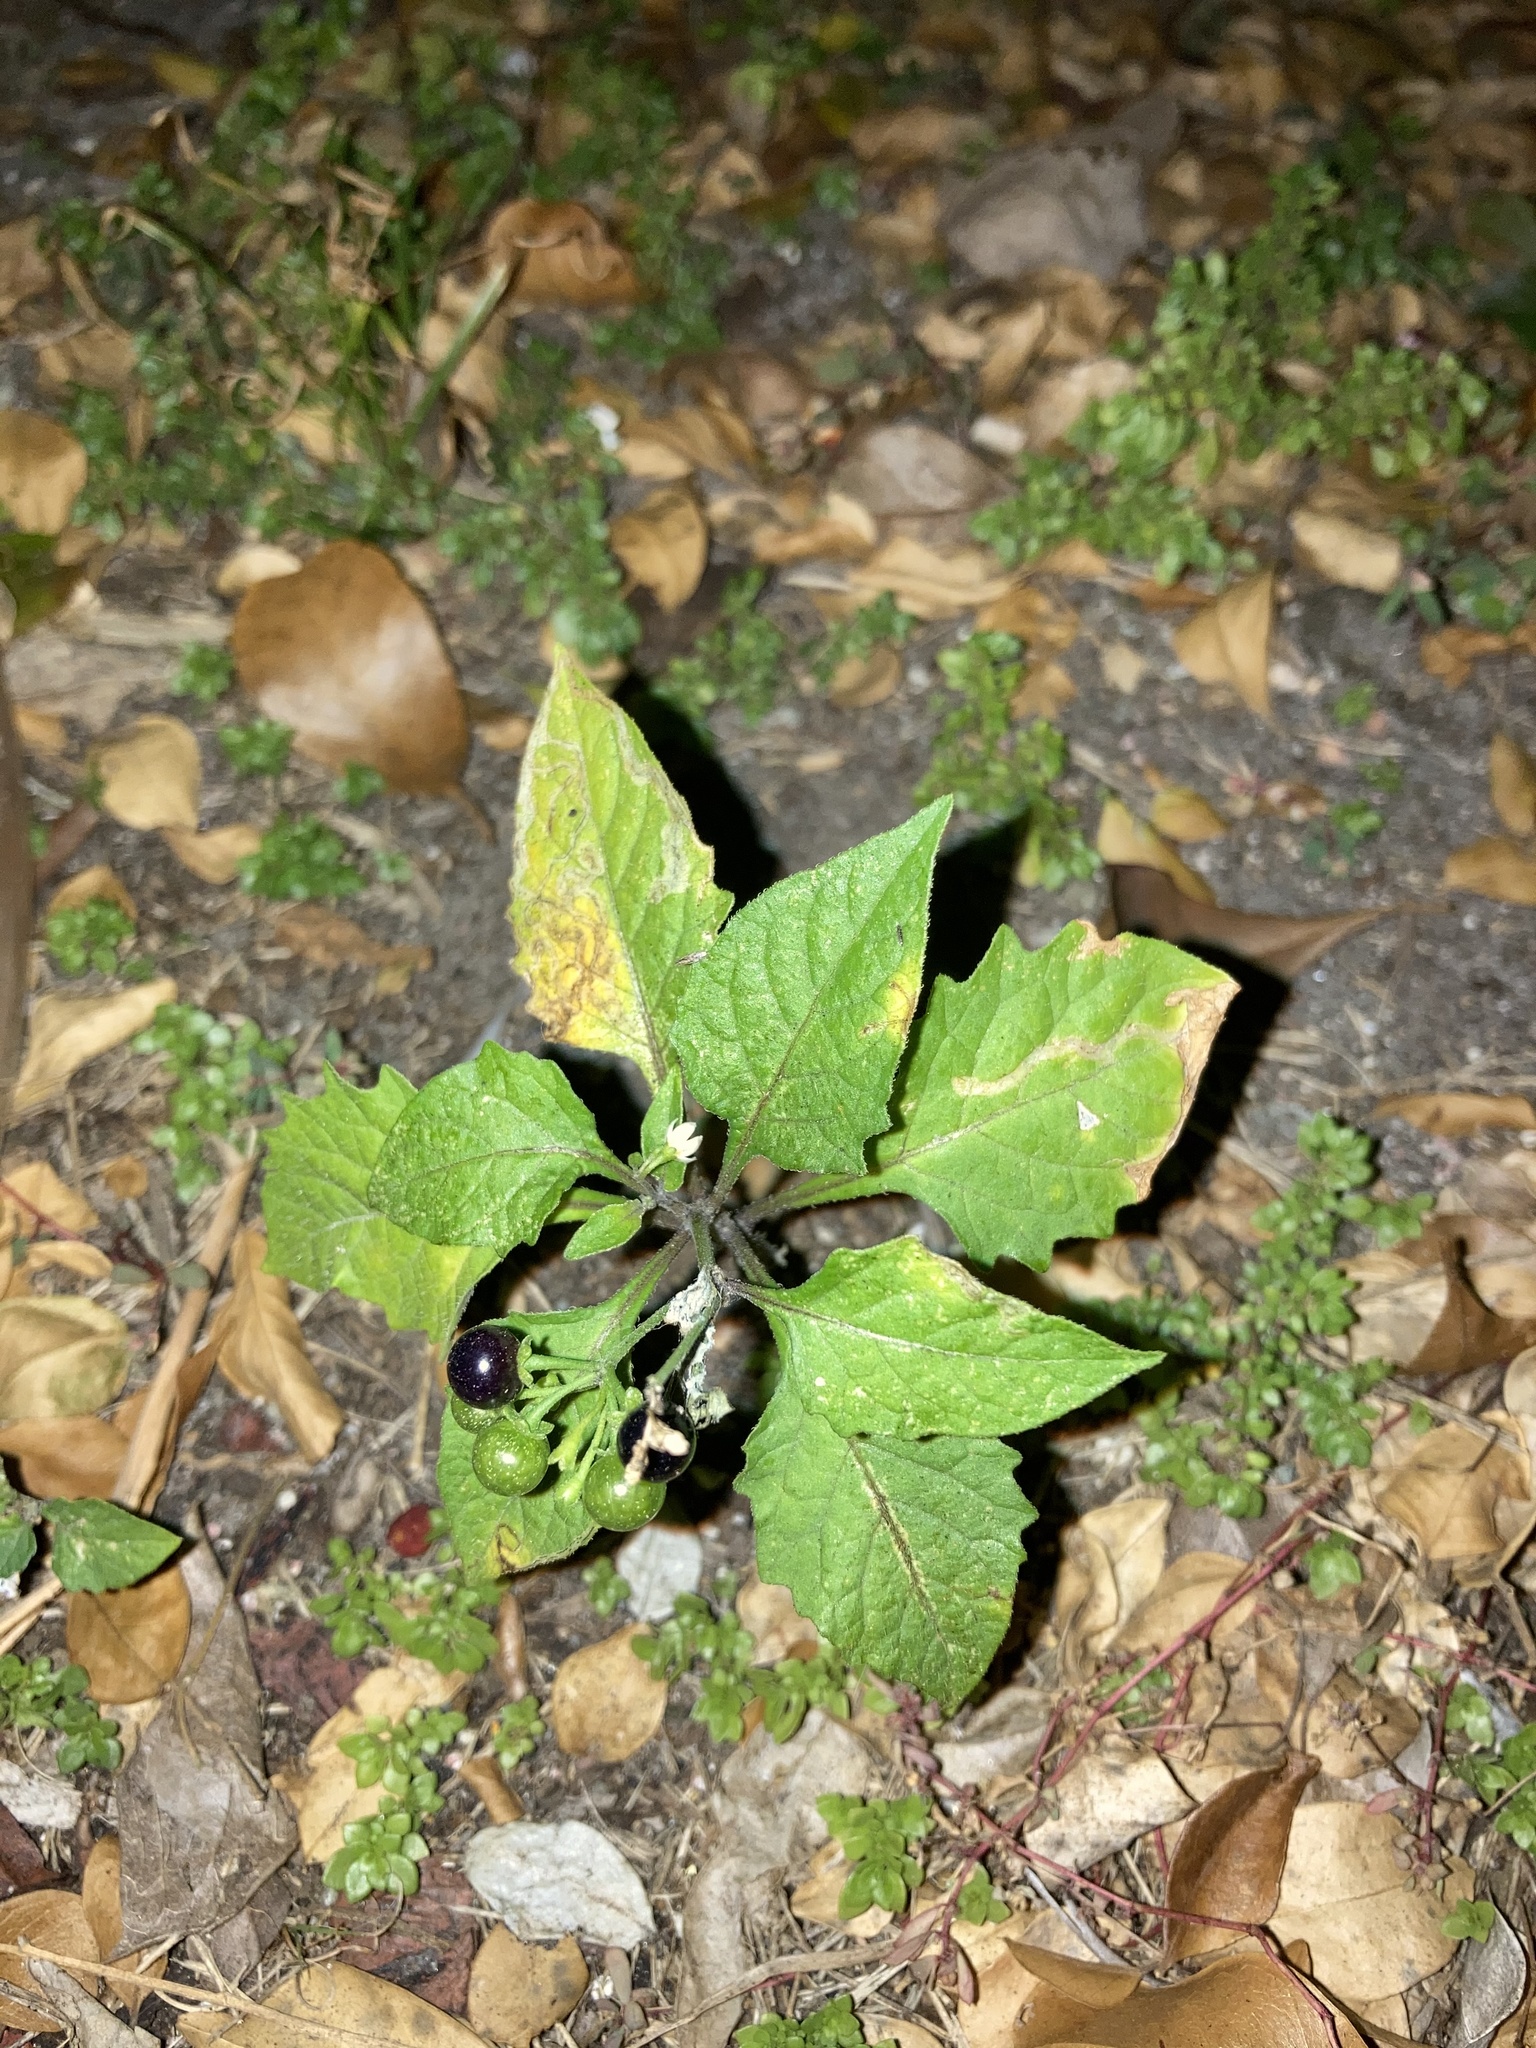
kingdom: Plantae
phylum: Tracheophyta
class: Magnoliopsida
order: Solanales
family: Solanaceae
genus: Solanum
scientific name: Solanum americanum
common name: American black nightshade
